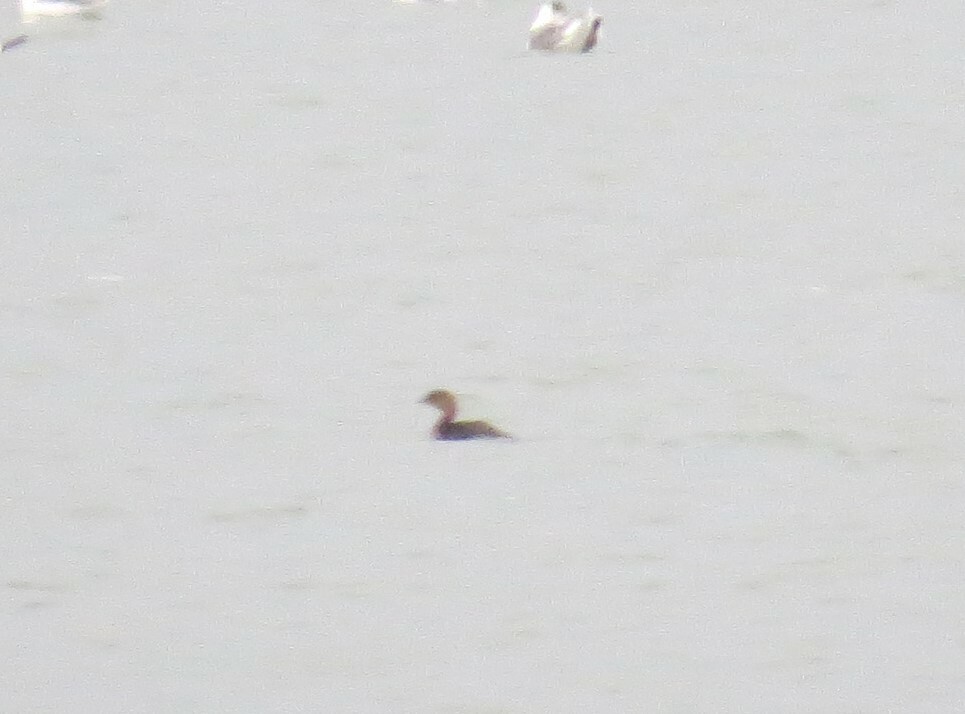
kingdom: Animalia
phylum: Chordata
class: Aves
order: Podicipediformes
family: Podicipedidae
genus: Podilymbus
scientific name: Podilymbus podiceps
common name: Pied-billed grebe
